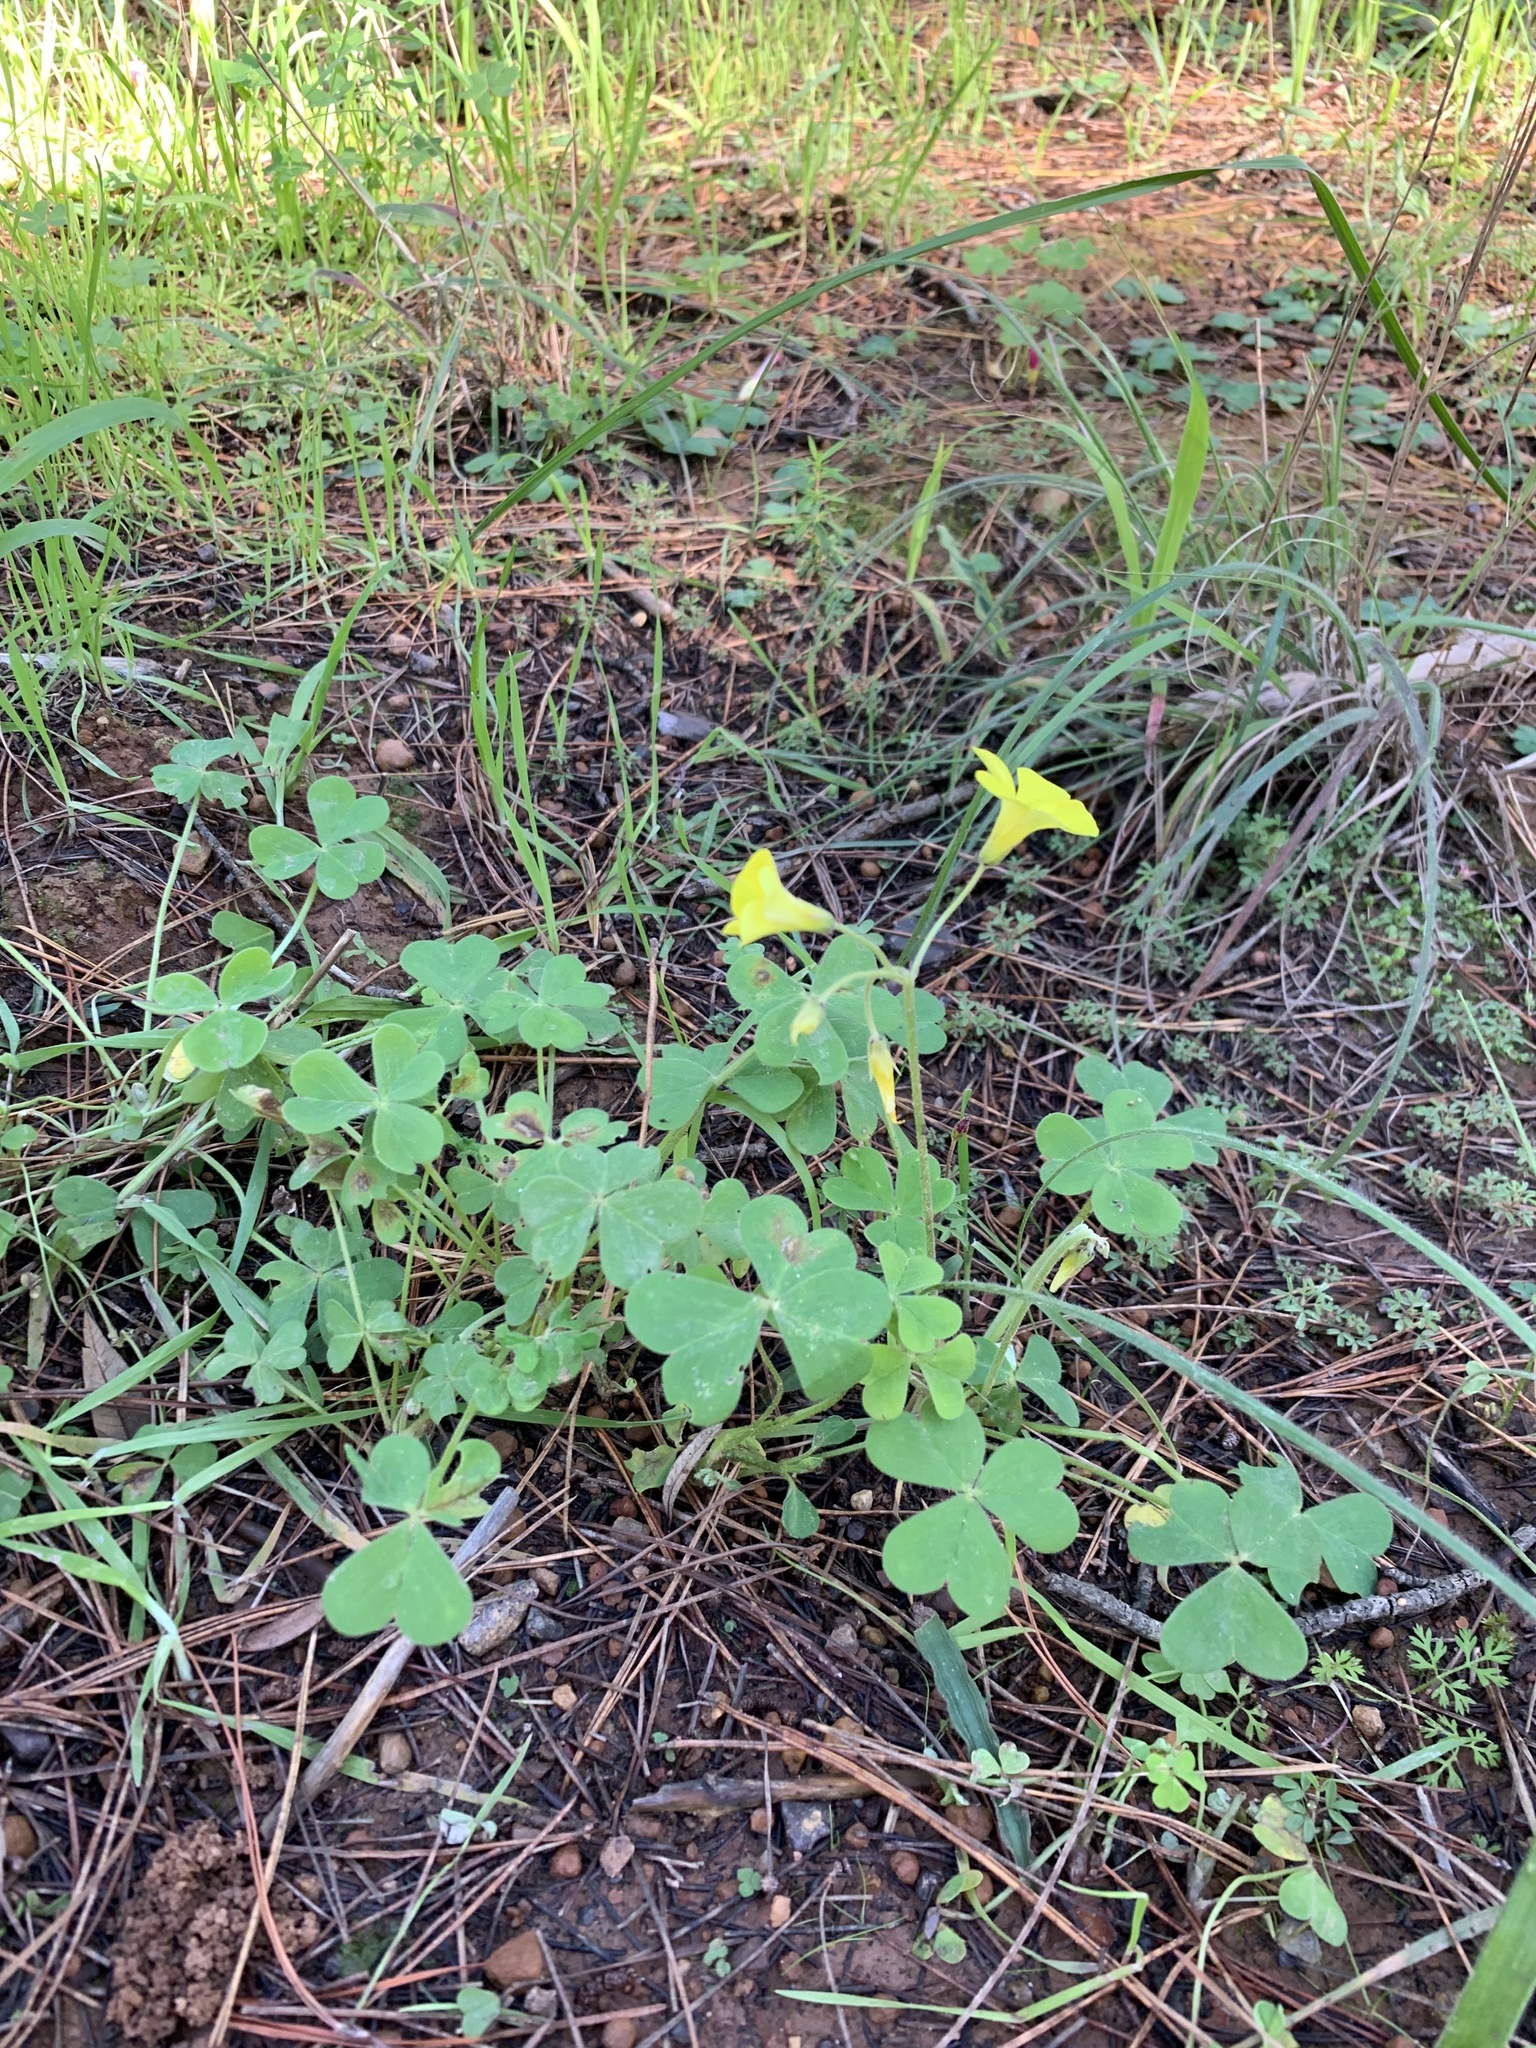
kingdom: Plantae
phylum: Tracheophyta
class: Magnoliopsida
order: Oxalidales
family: Oxalidaceae
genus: Oxalis
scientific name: Oxalis pes-caprae
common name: Bermuda-buttercup
